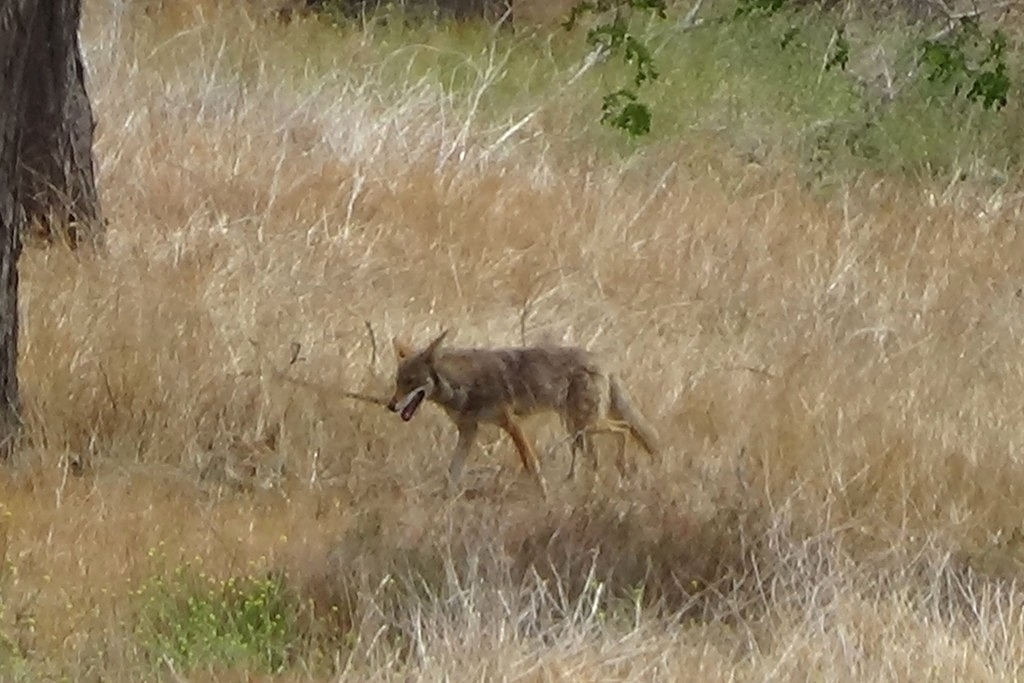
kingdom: Animalia
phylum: Chordata
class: Mammalia
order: Carnivora
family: Canidae
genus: Canis
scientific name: Canis latrans
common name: Coyote
